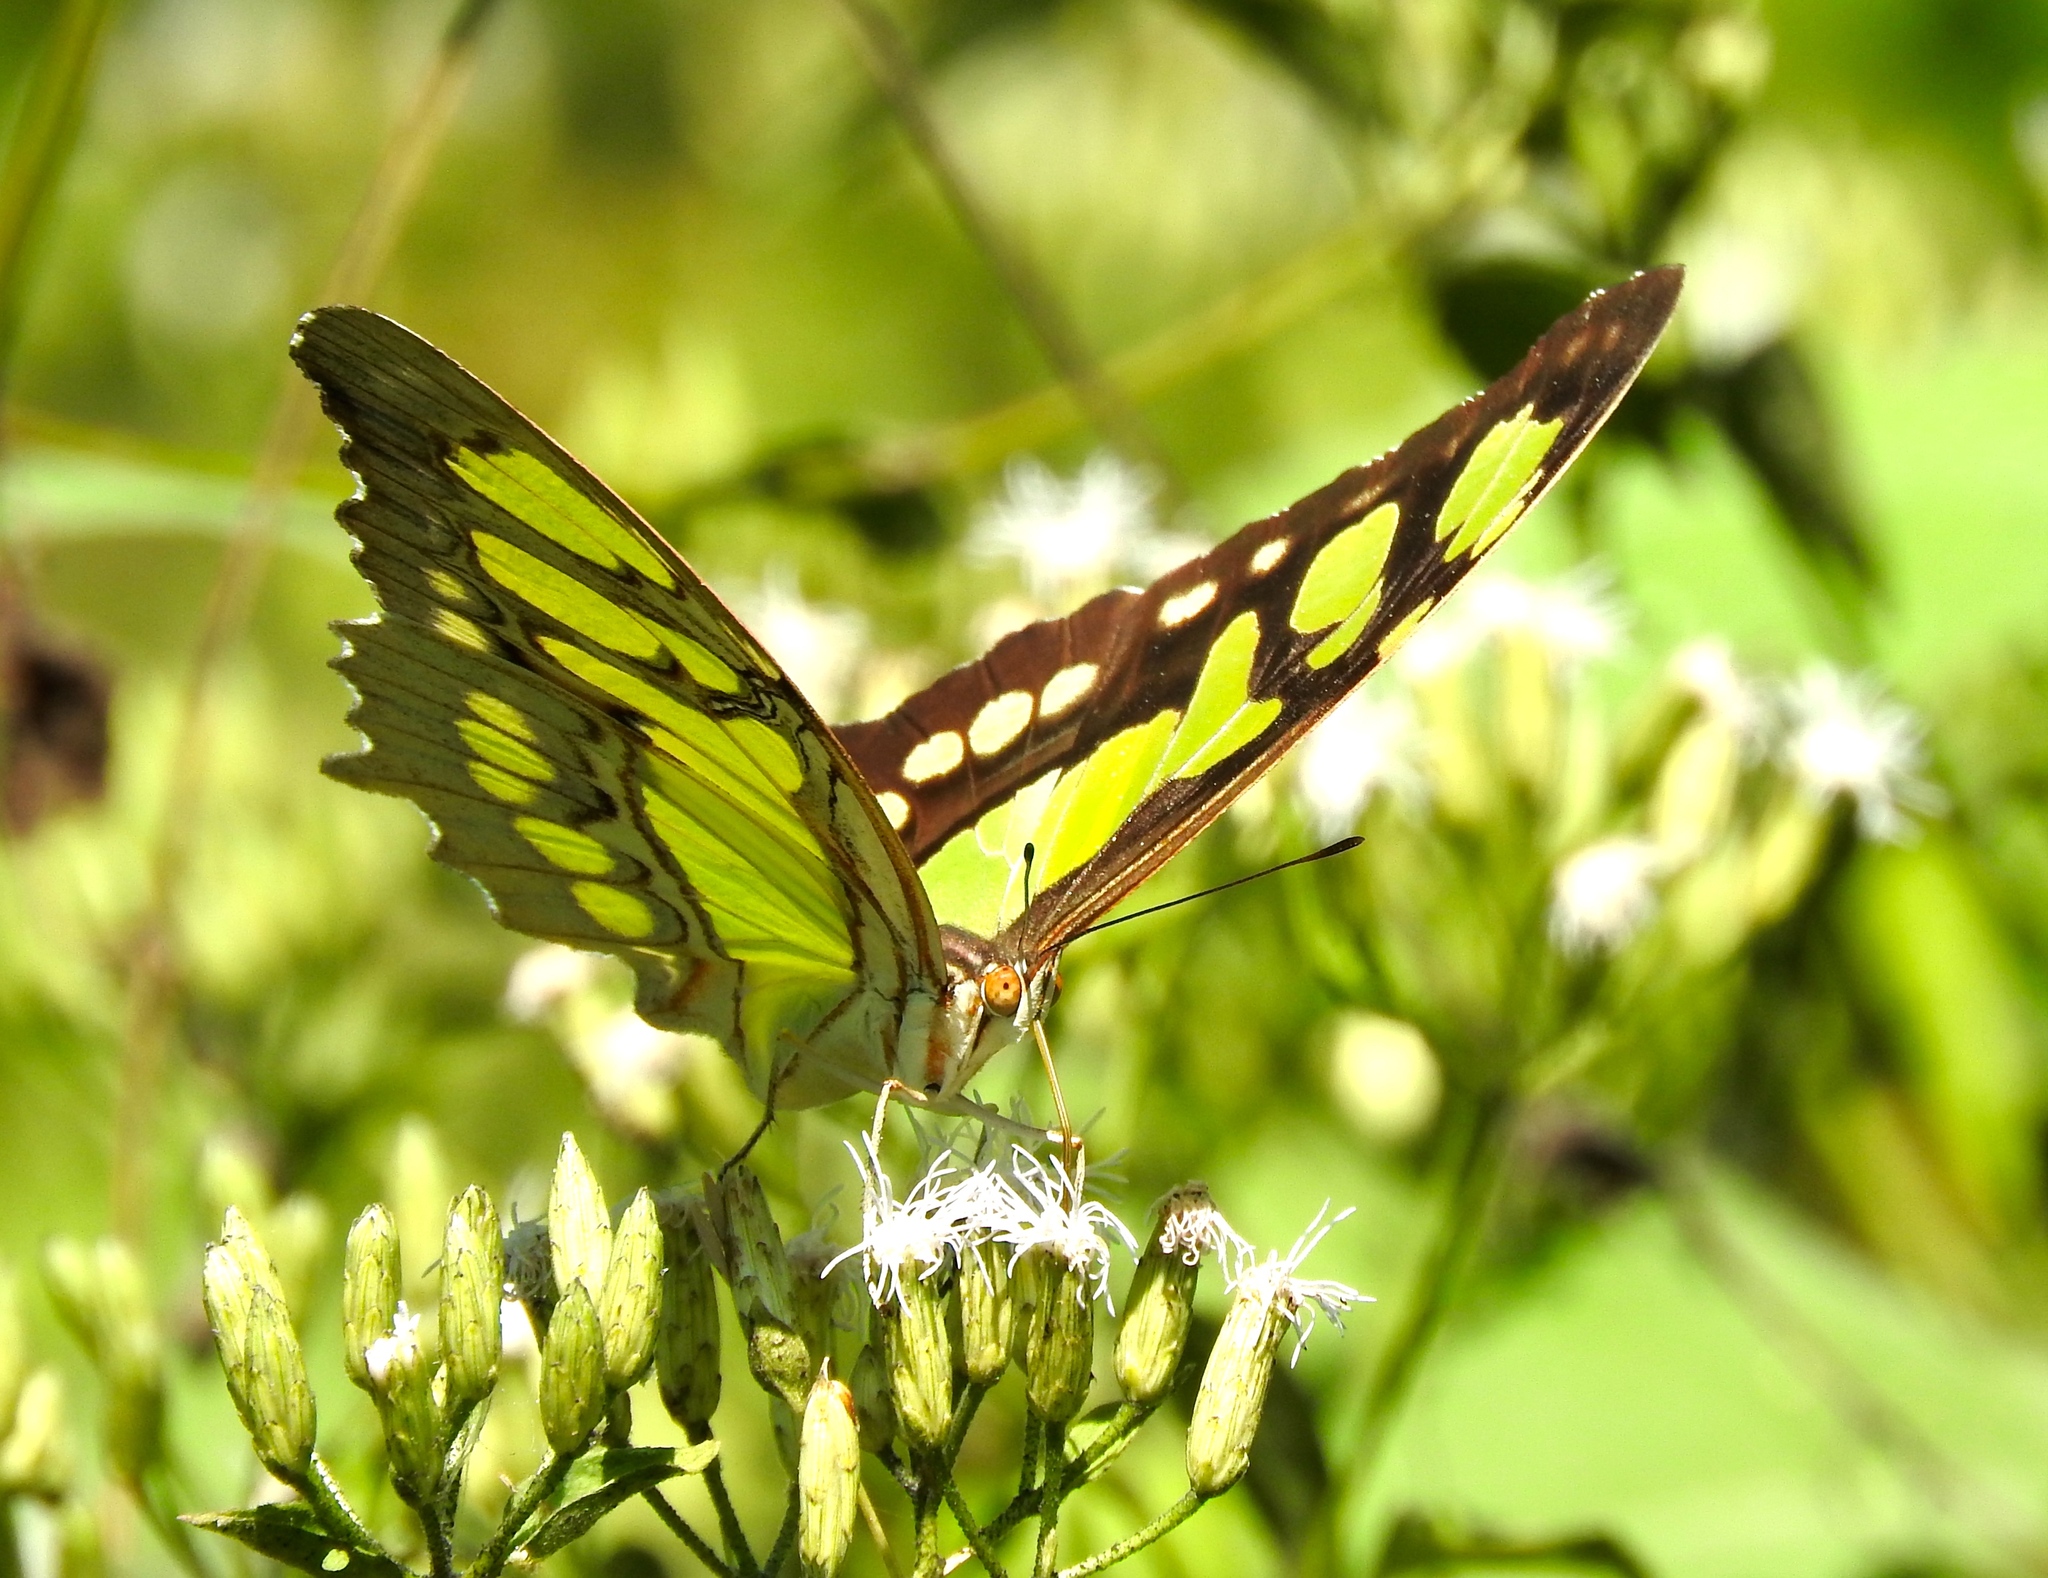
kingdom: Animalia
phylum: Arthropoda
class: Insecta
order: Lepidoptera
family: Nymphalidae
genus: Siproeta
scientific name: Siproeta stelenes
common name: Malachite
